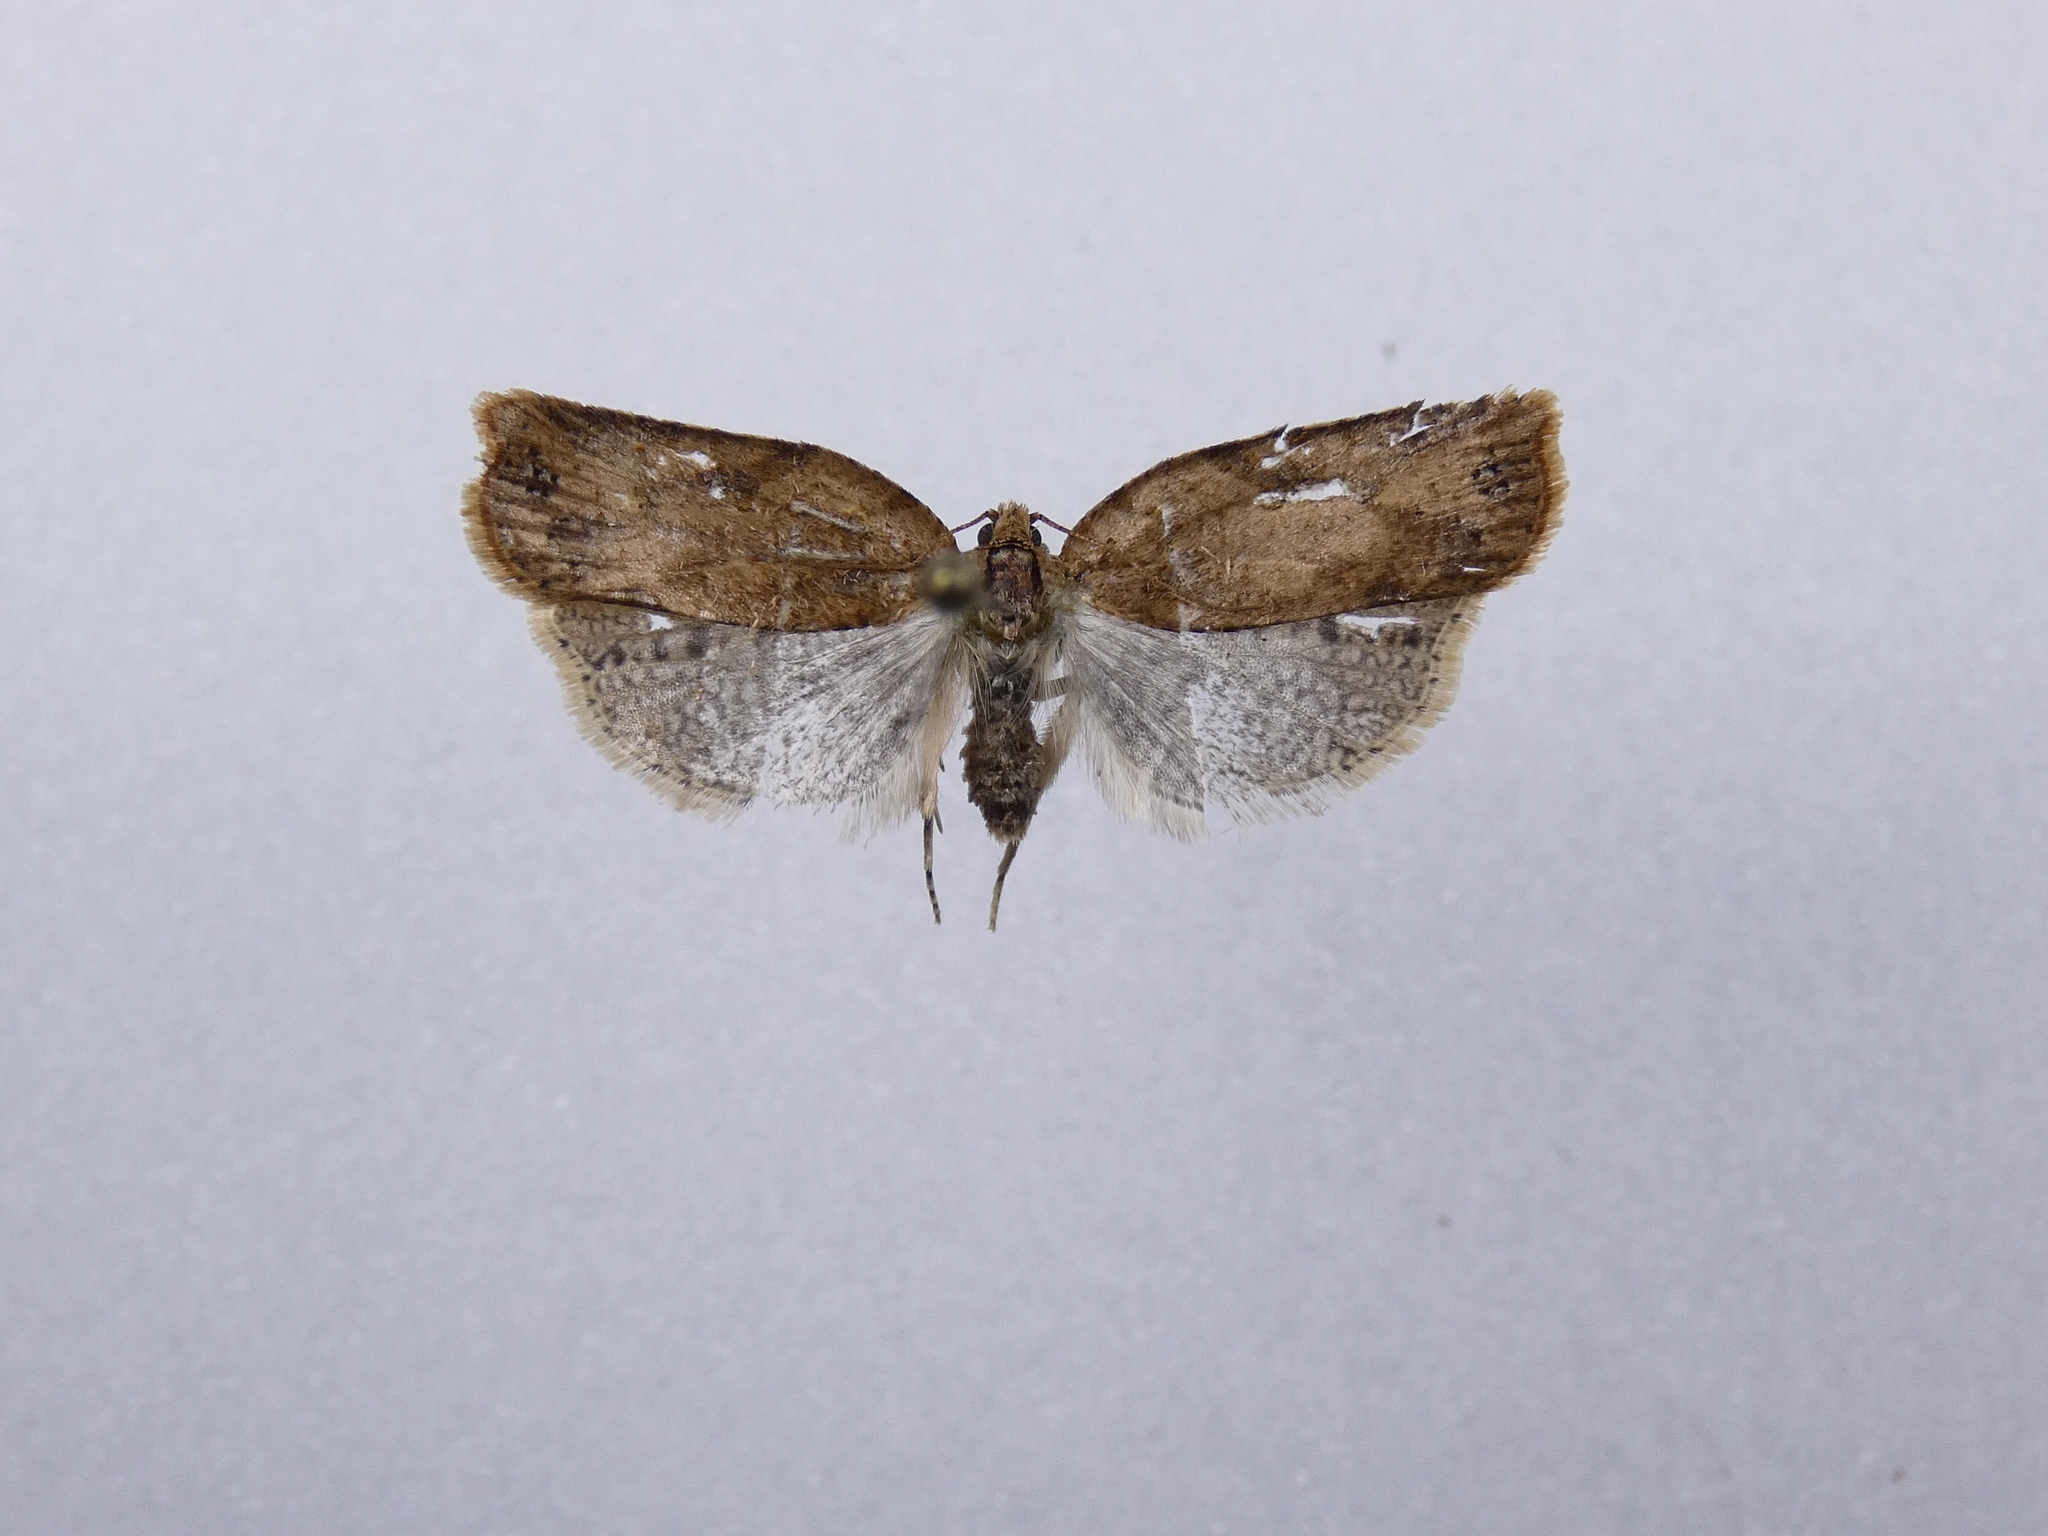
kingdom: Animalia
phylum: Arthropoda
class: Insecta
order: Lepidoptera
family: Tortricidae
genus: Epiphyas
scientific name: Epiphyas postvittana
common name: Light brown apple moth
